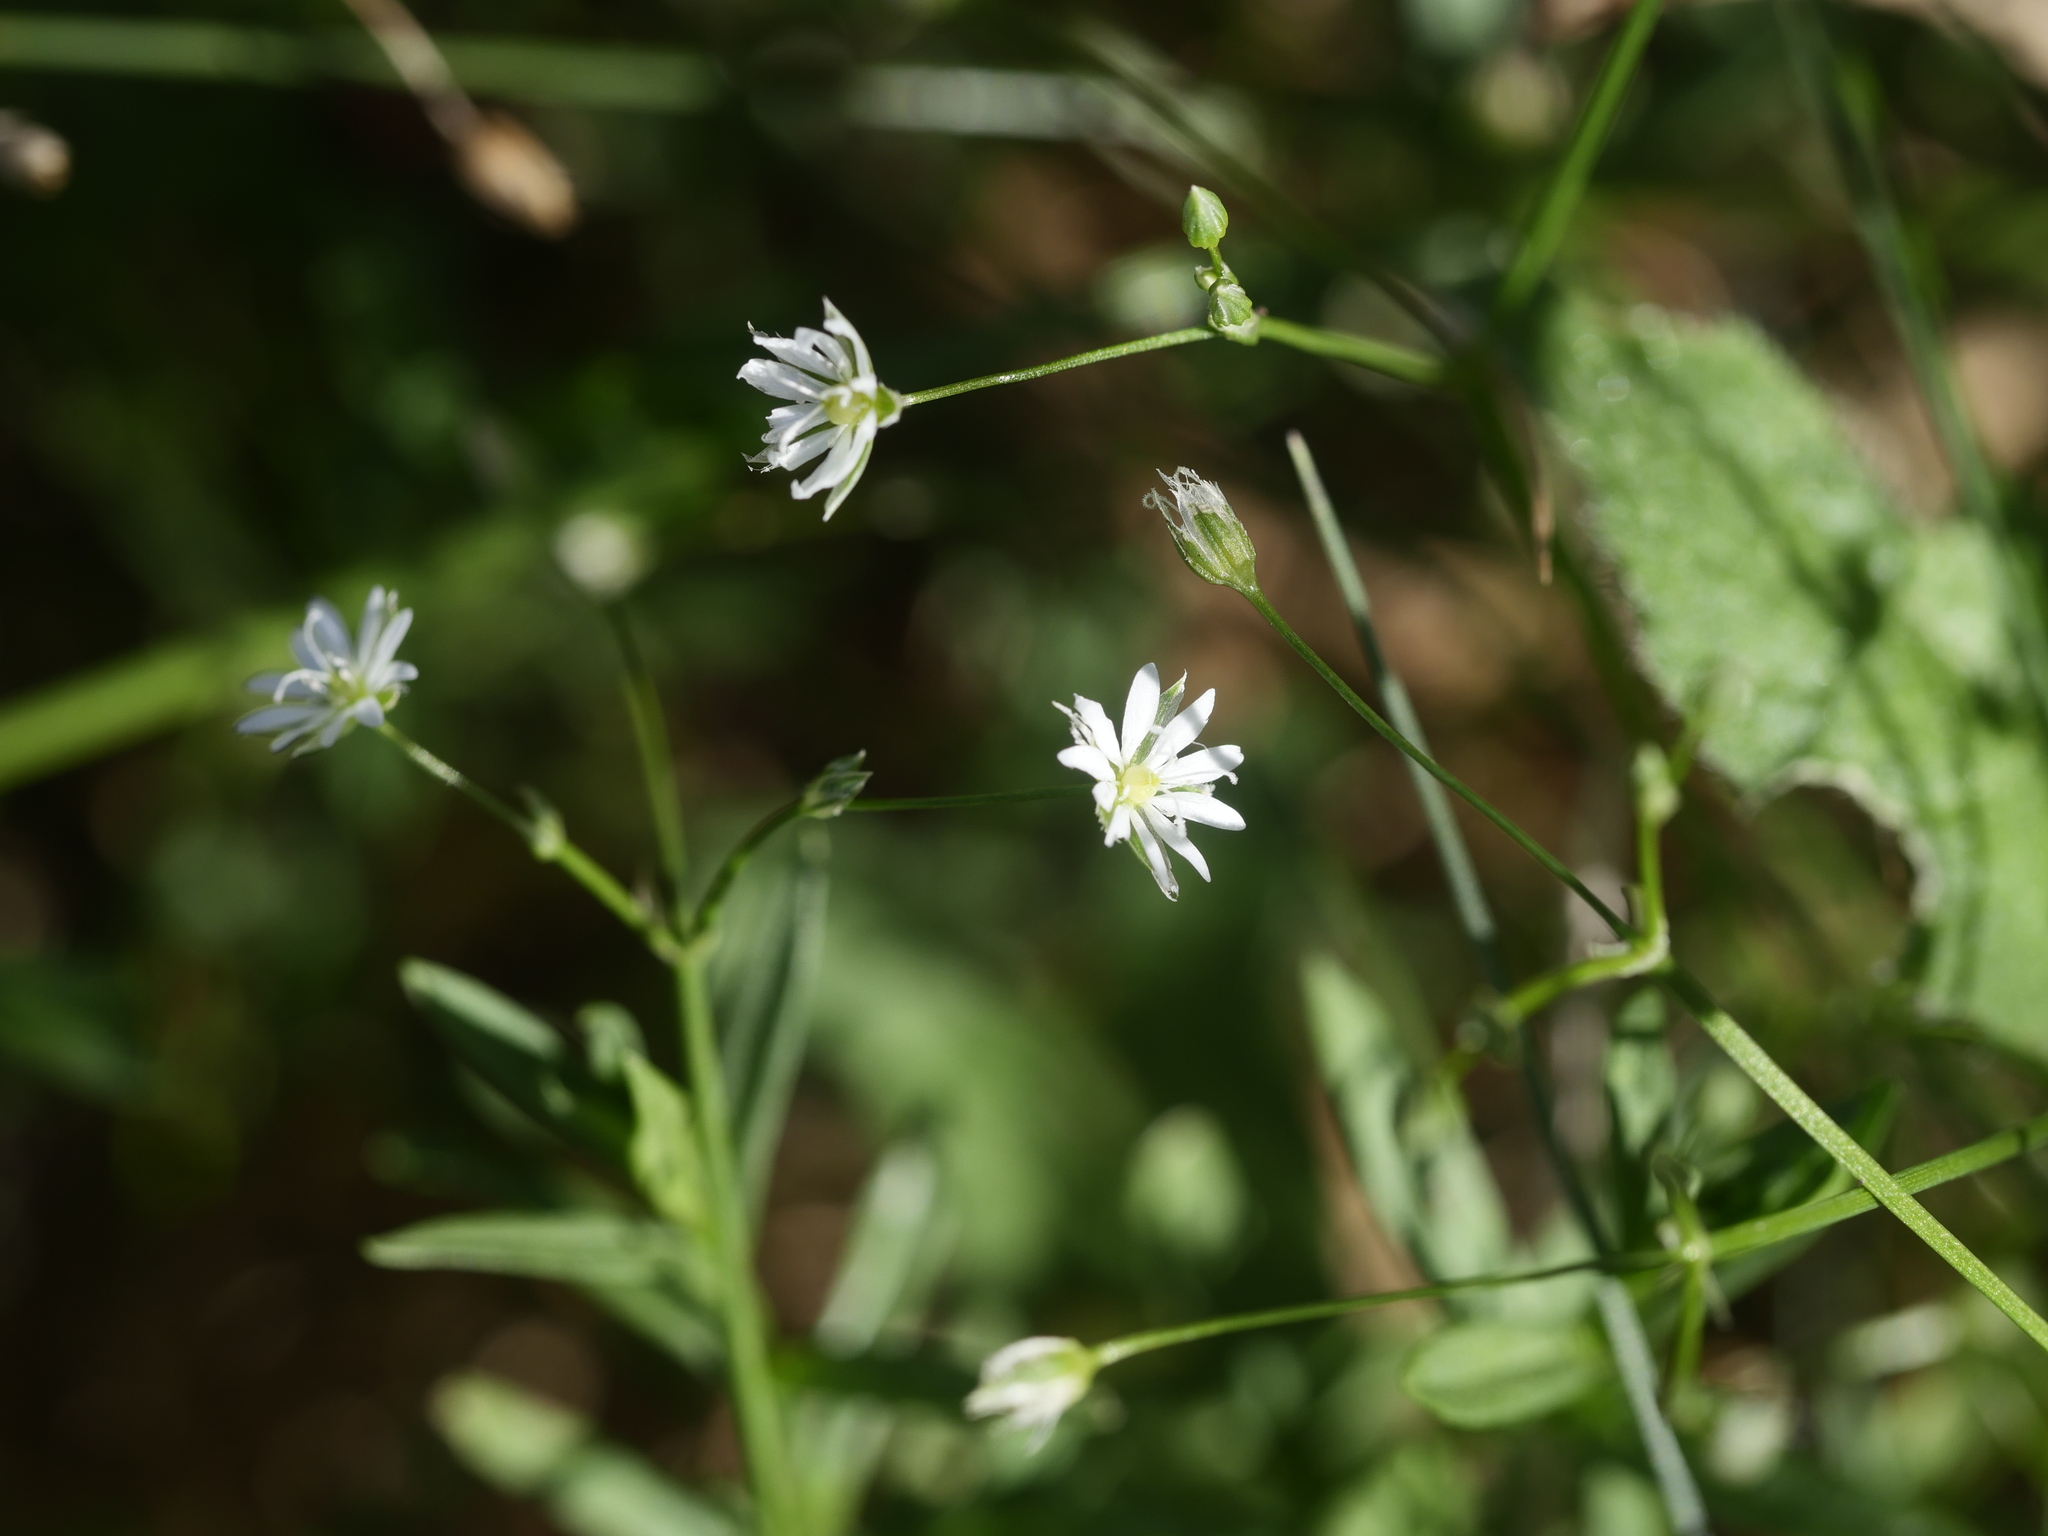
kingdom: Plantae
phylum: Tracheophyta
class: Magnoliopsida
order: Caryophyllales
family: Caryophyllaceae
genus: Stellaria
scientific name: Stellaria graminea
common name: Grass-like starwort
